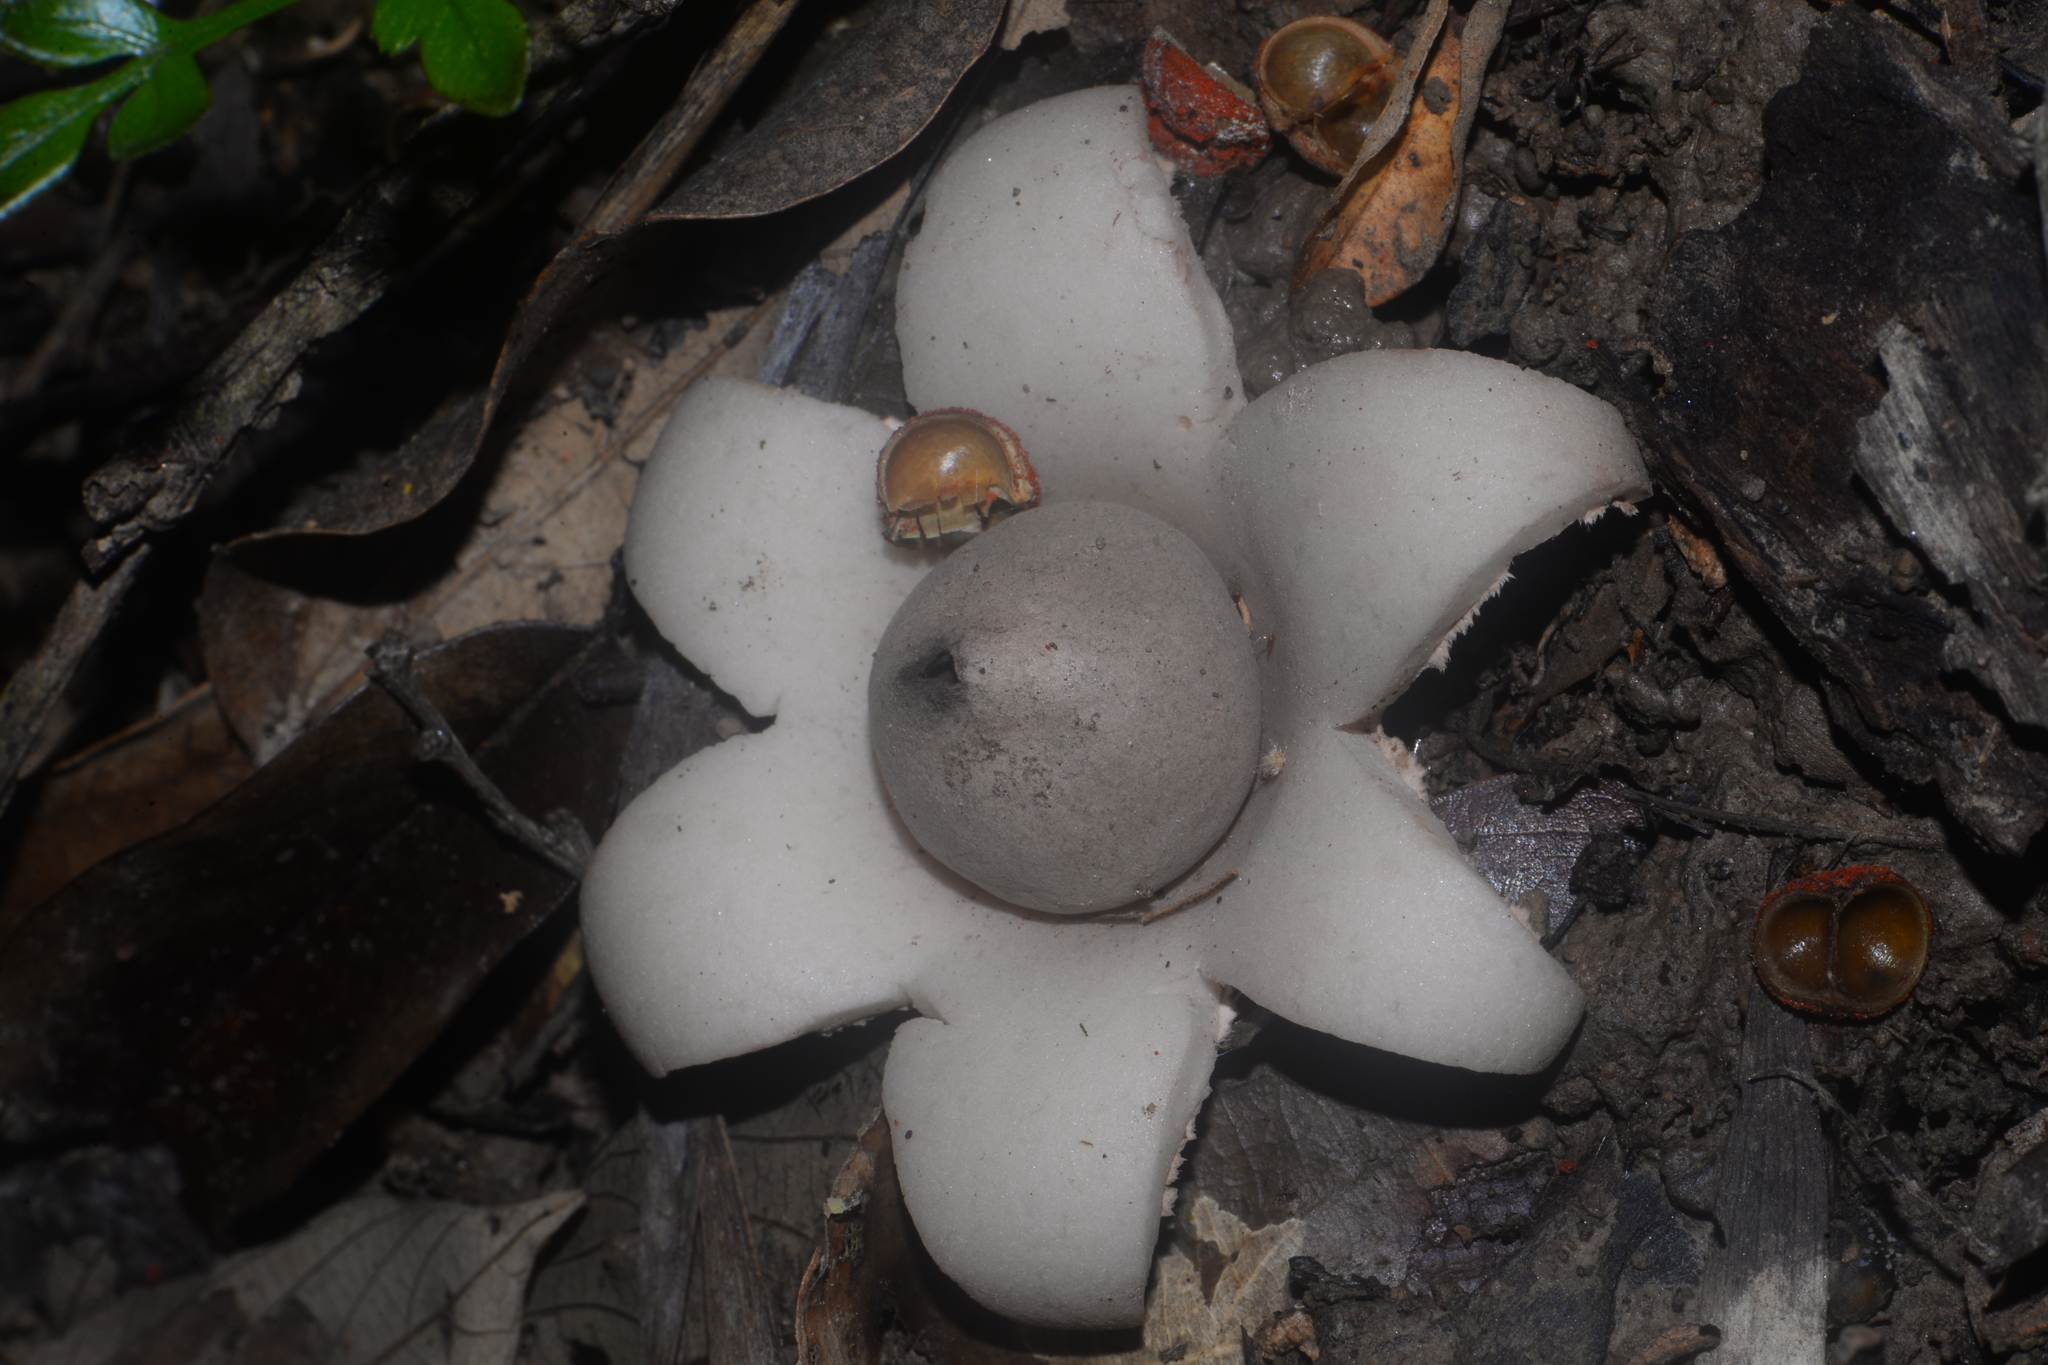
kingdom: Fungi
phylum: Basidiomycota
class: Agaricomycetes
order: Geastrales
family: Geastraceae
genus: Geastrum
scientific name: Geastrum saccatum
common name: Rounded earthstar
